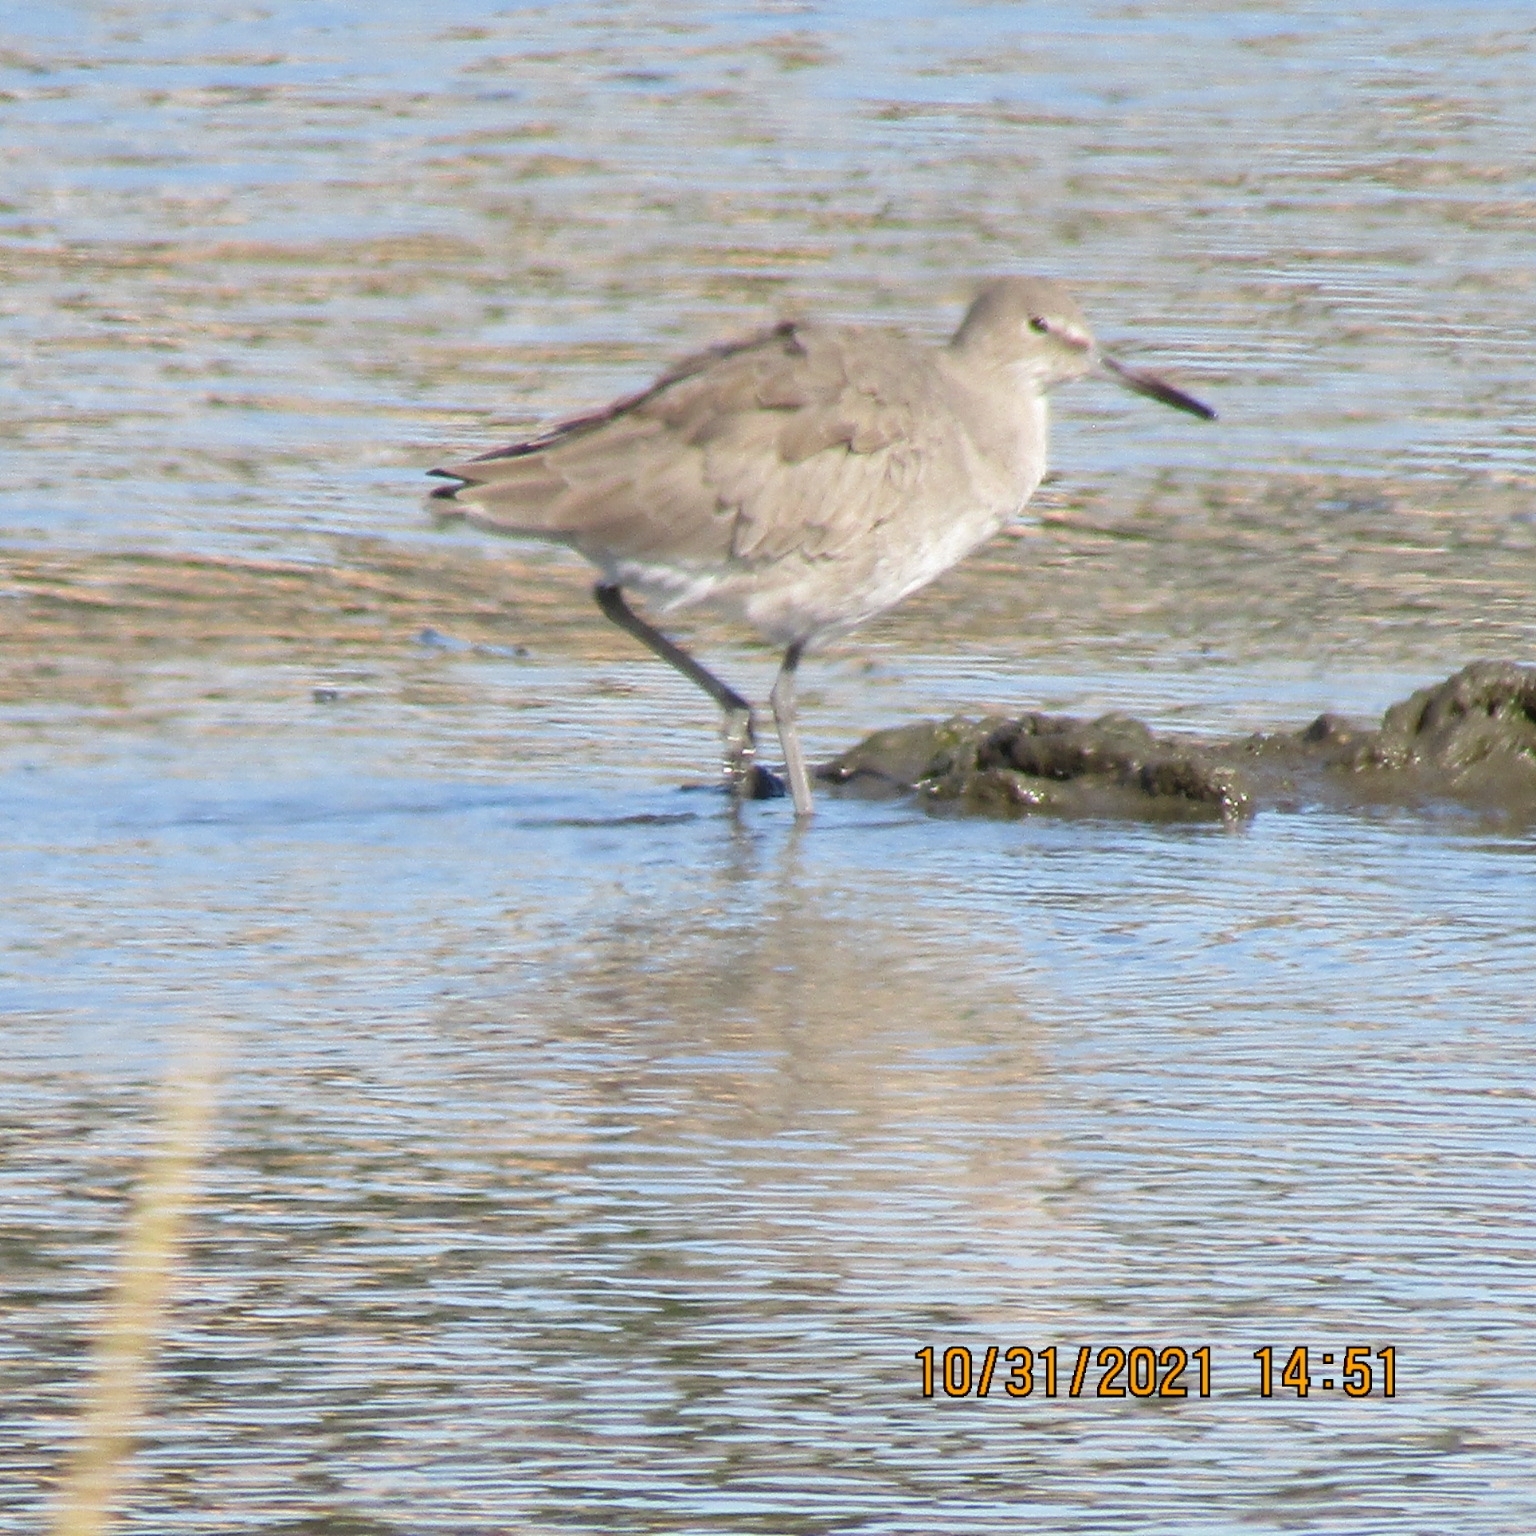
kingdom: Animalia
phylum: Chordata
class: Aves
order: Charadriiformes
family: Scolopacidae
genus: Tringa
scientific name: Tringa semipalmata
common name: Willet
